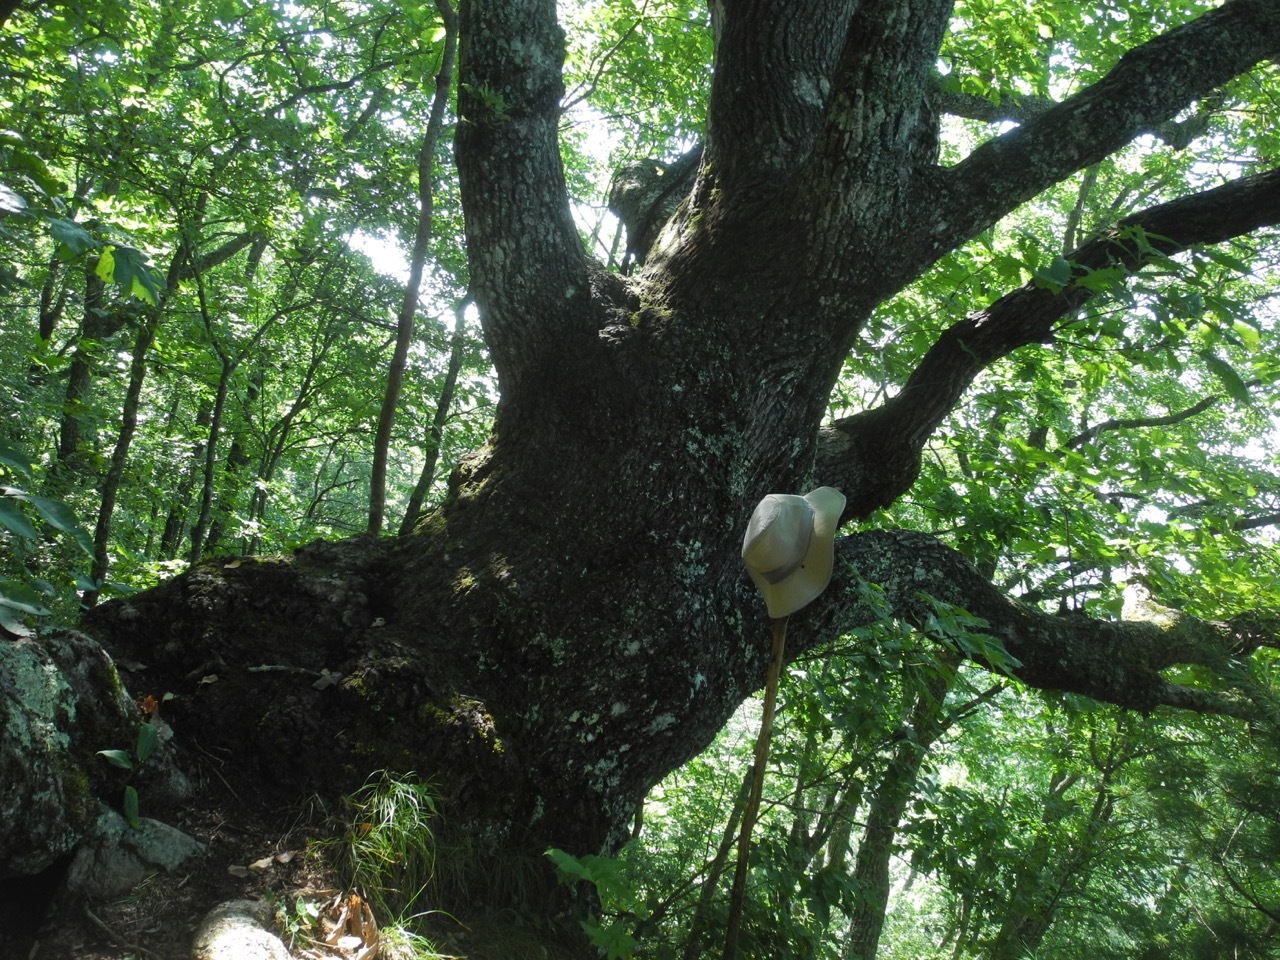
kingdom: Plantae
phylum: Tracheophyta
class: Magnoliopsida
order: Fagales
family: Fagaceae
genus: Quercus
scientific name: Quercus montana
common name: Chestnut oak
